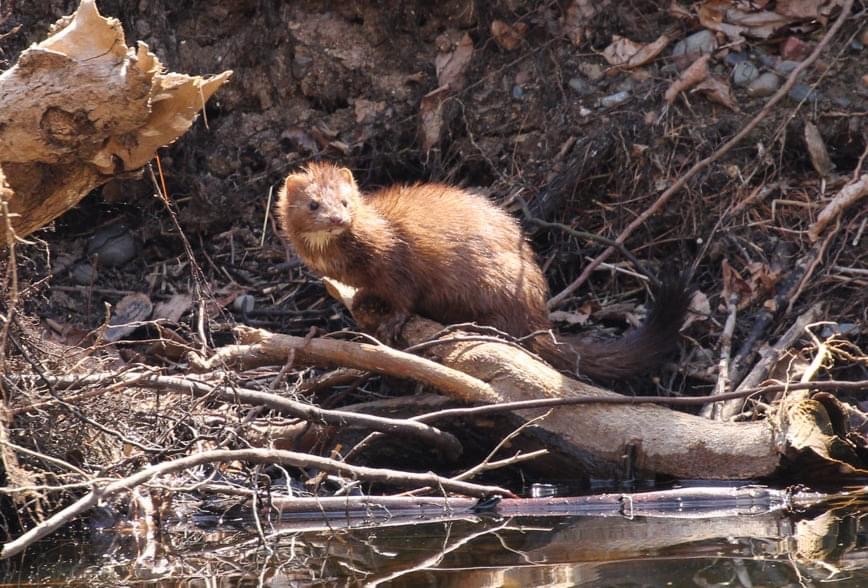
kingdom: Animalia
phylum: Chordata
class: Mammalia
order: Carnivora
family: Mustelidae
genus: Mustela
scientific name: Mustela
